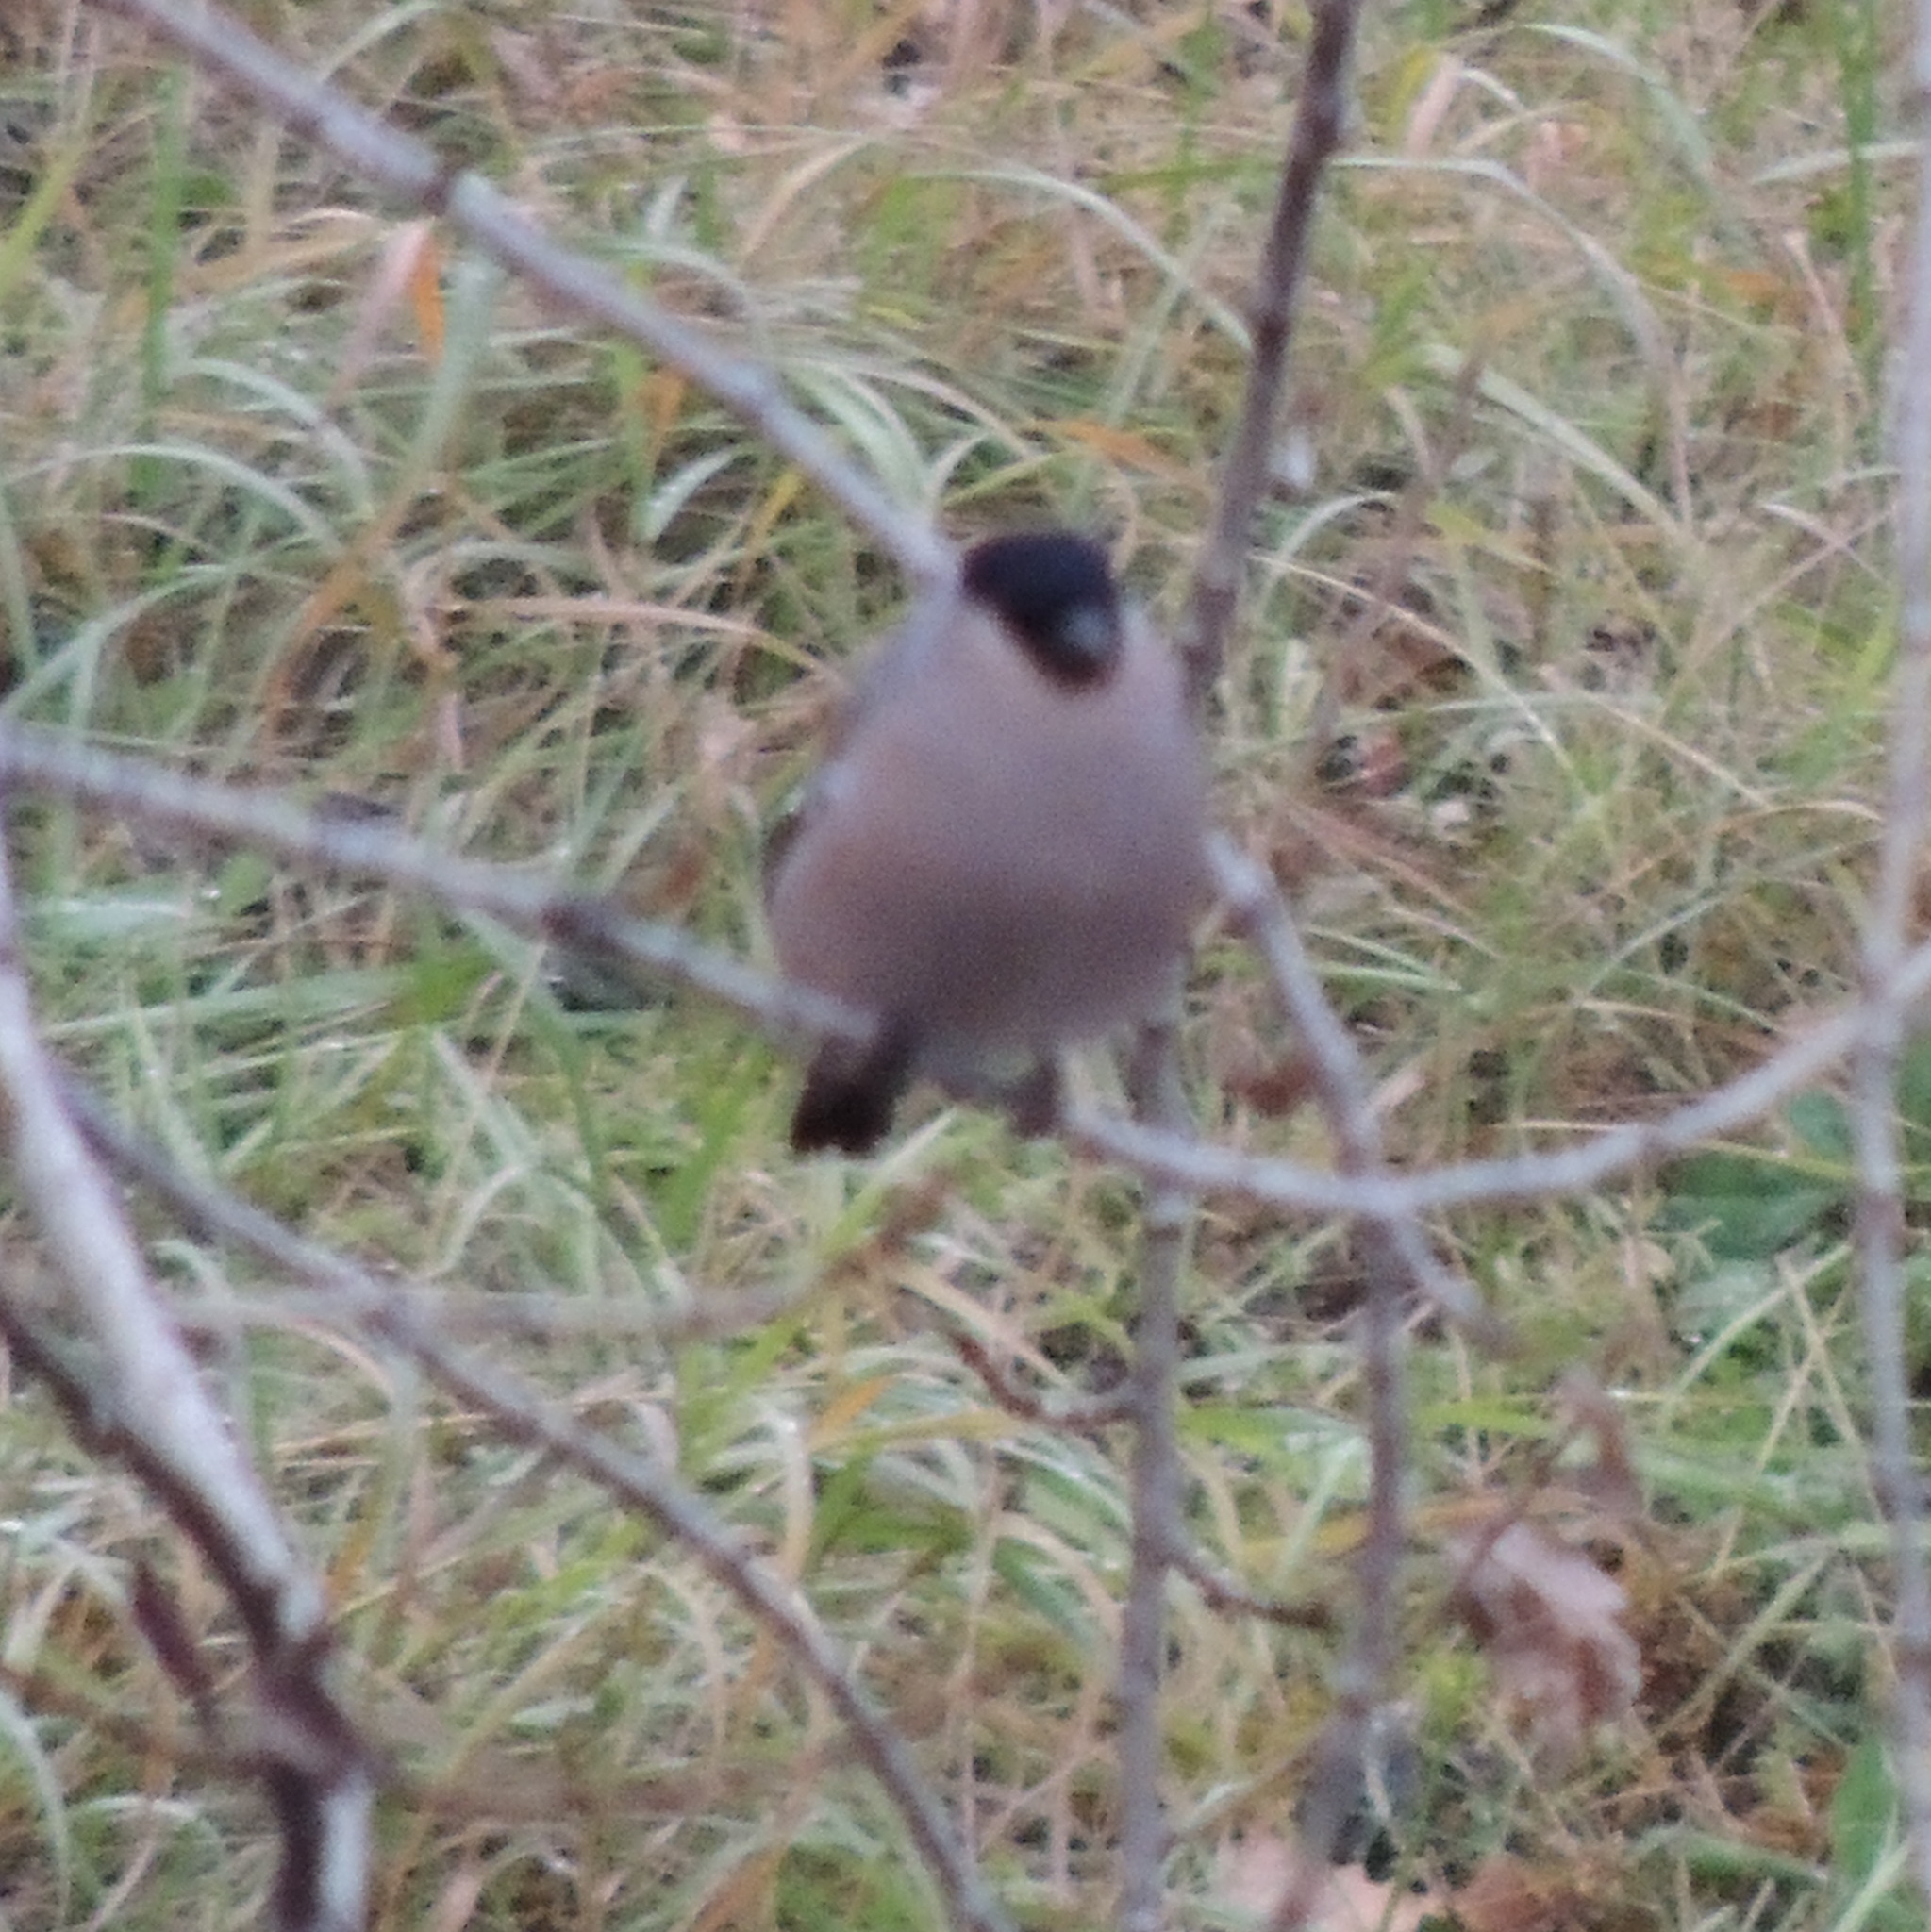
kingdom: Animalia
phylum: Chordata
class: Aves
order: Passeriformes
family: Fringillidae
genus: Pyrrhula
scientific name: Pyrrhula pyrrhula
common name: Eurasian bullfinch
